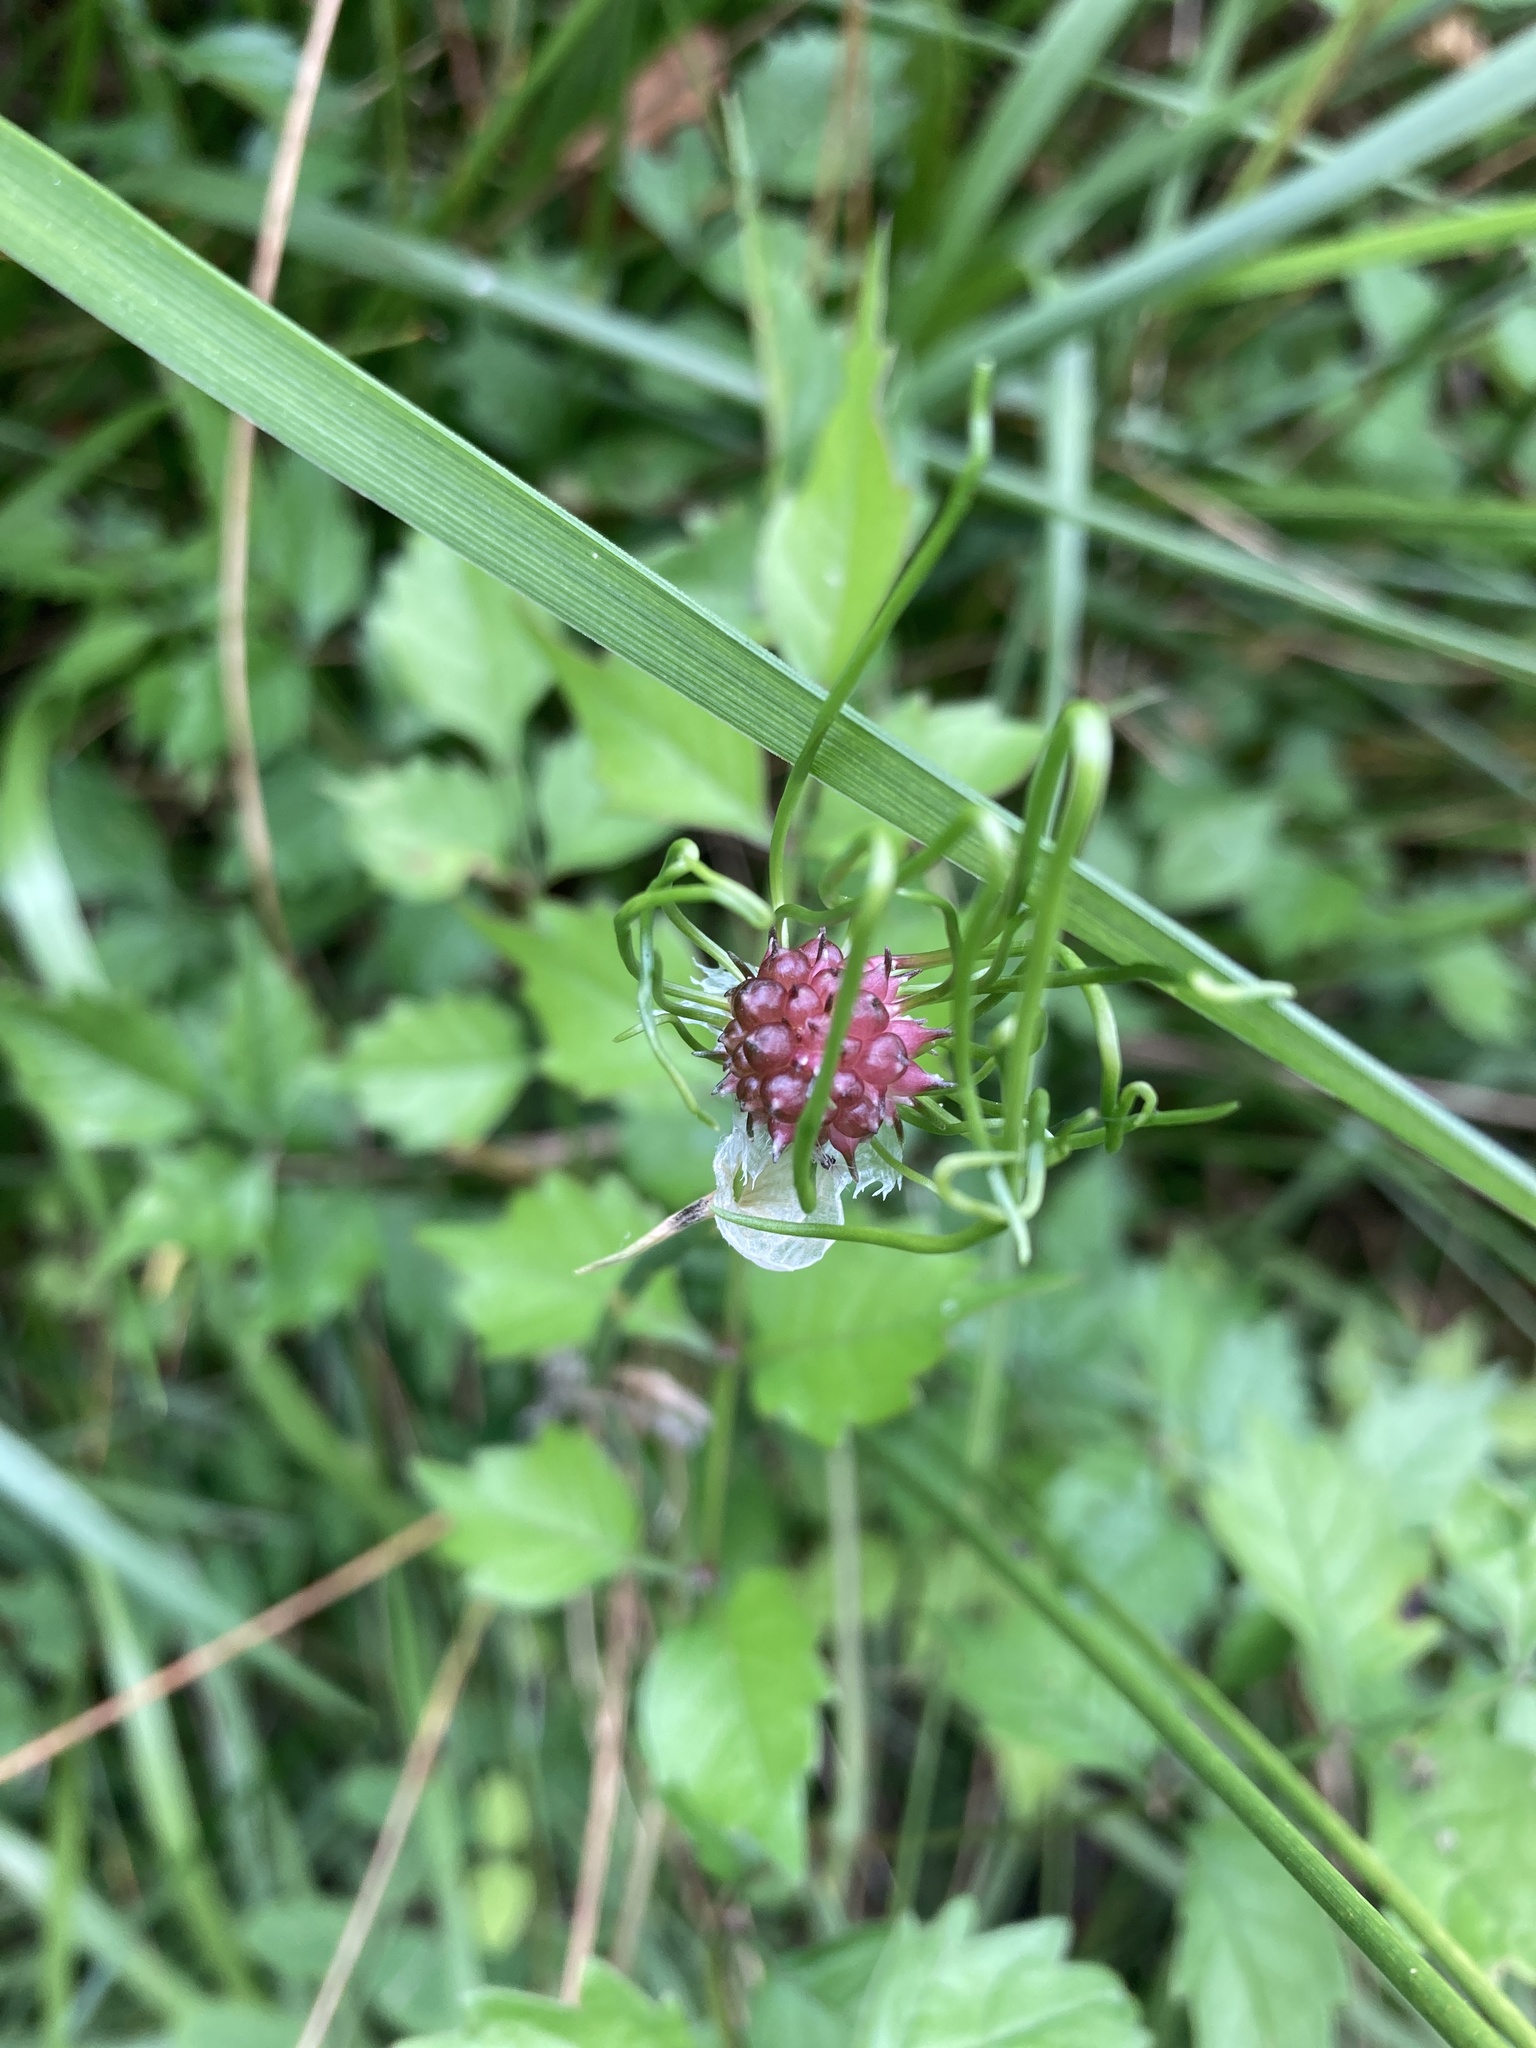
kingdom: Plantae
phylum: Tracheophyta
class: Liliopsida
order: Asparagales
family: Amaryllidaceae
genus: Allium
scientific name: Allium vineale
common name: Crow garlic
